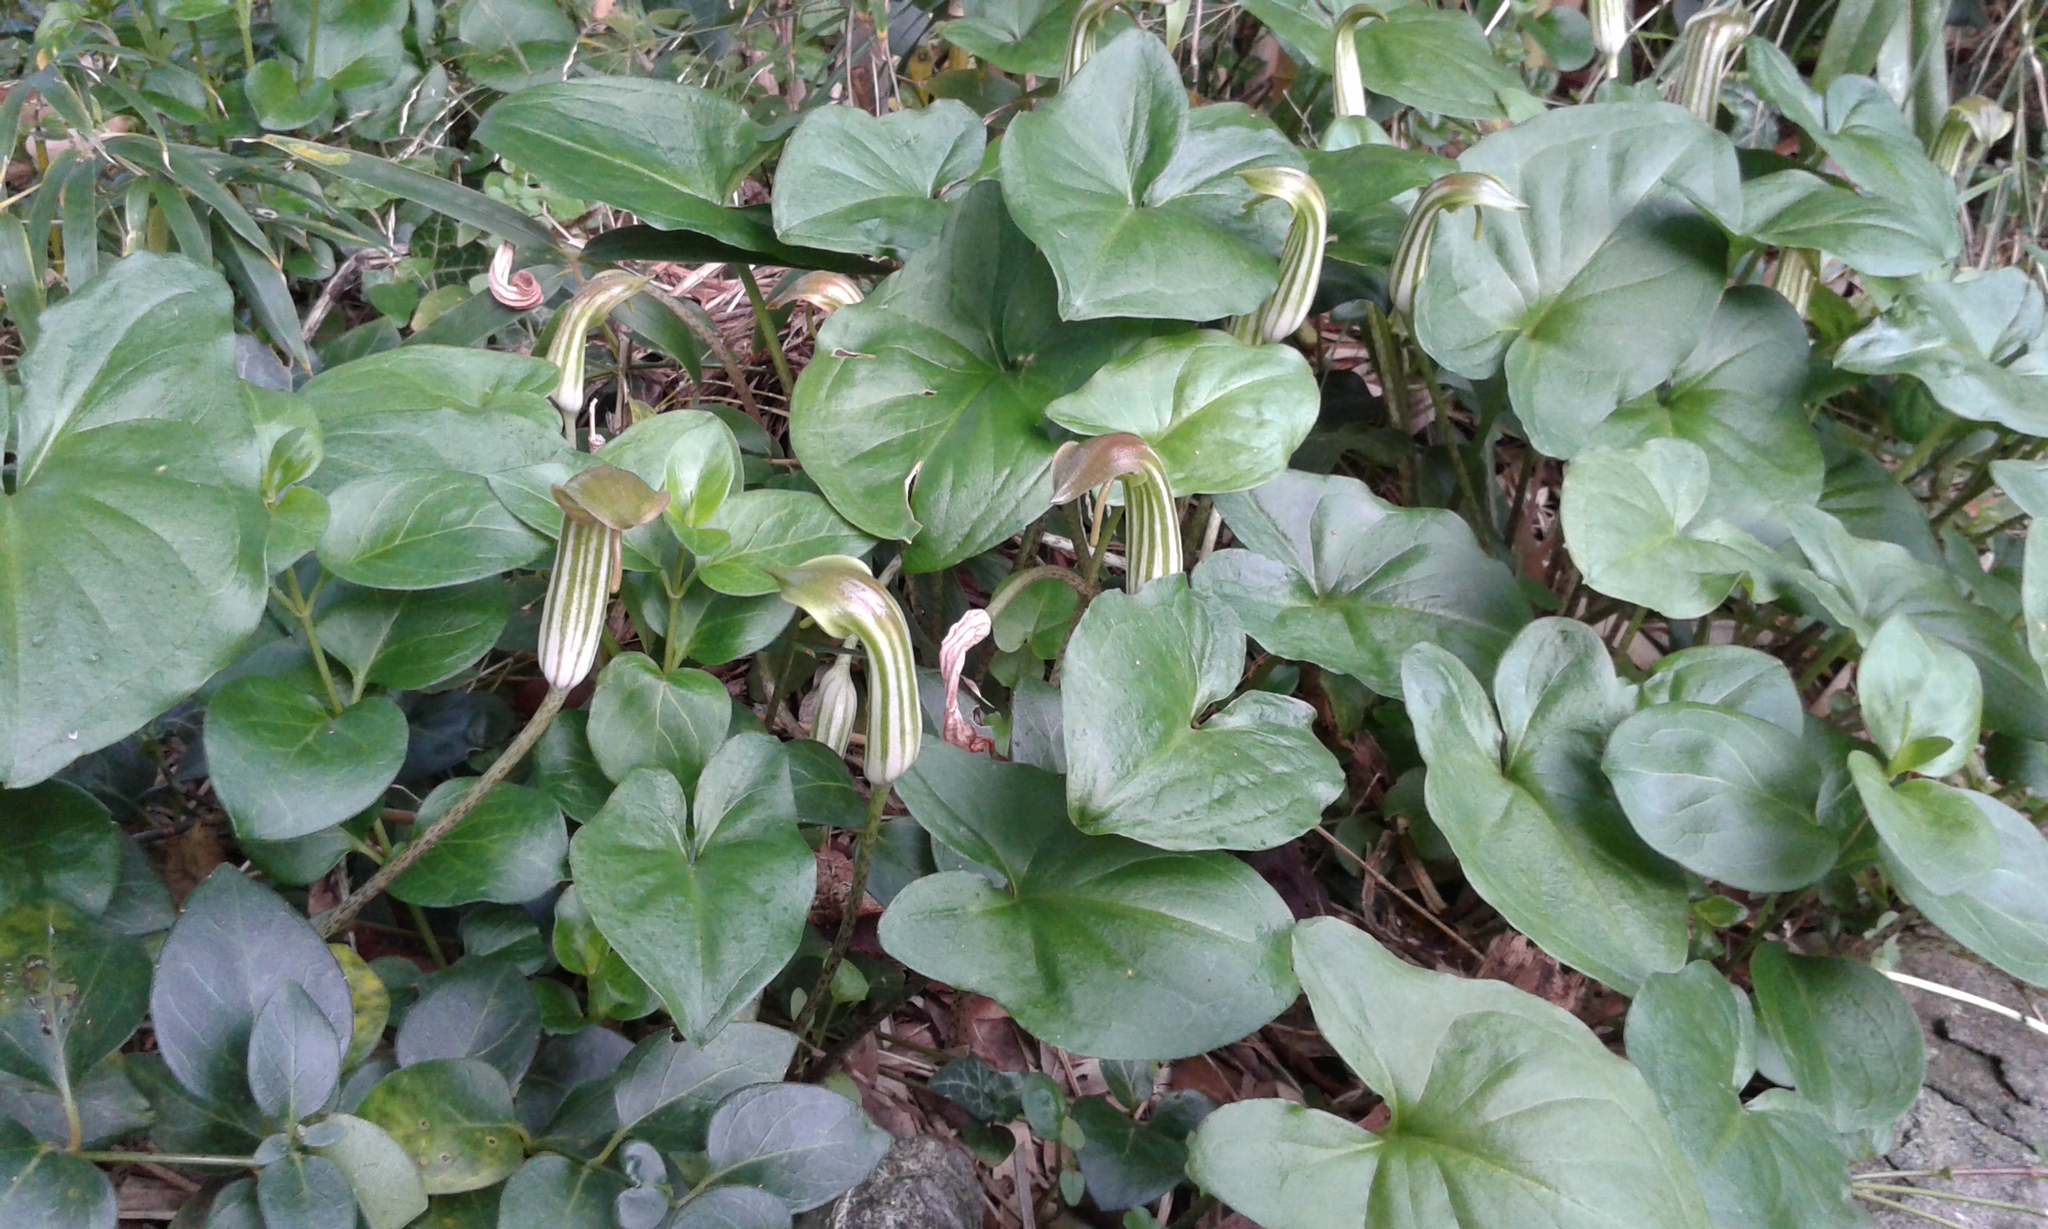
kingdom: Plantae
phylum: Tracheophyta
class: Liliopsida
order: Alismatales
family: Araceae
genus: Arisarum
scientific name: Arisarum vulgare
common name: Common arisarum
